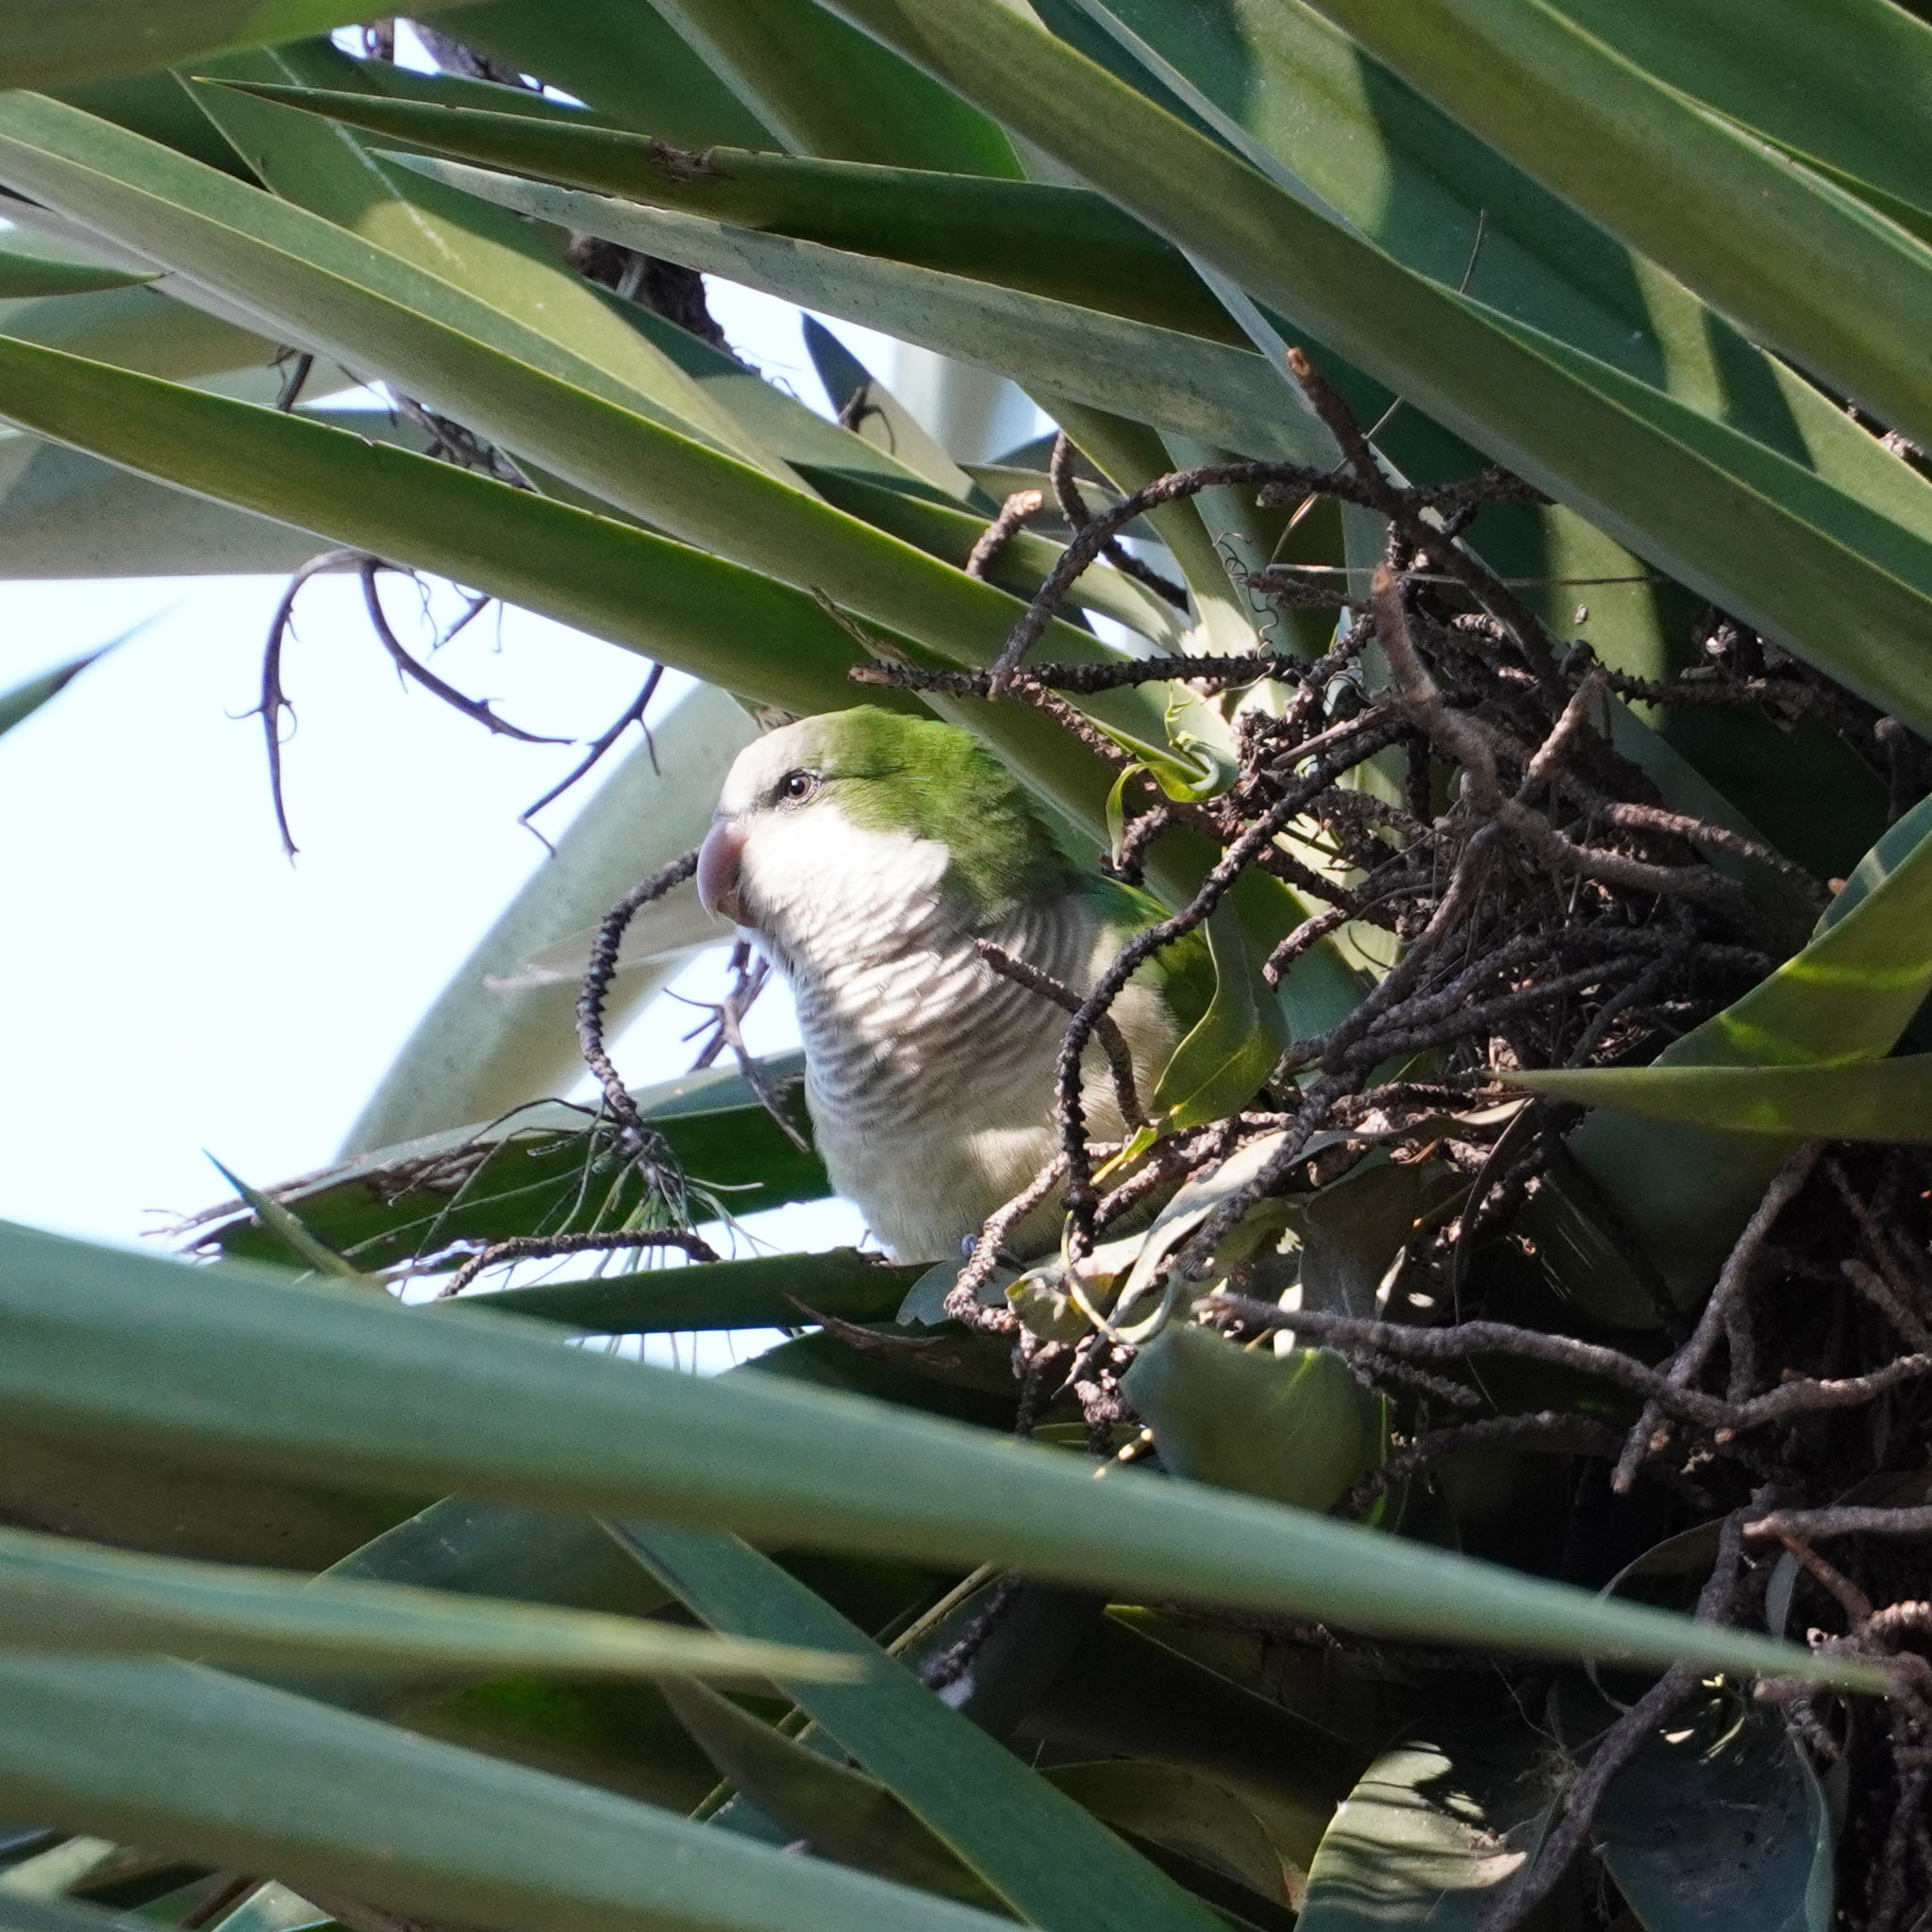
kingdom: Animalia
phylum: Chordata
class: Aves
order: Psittaciformes
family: Psittacidae
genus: Myiopsitta
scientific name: Myiopsitta monachus
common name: Monk parakeet
